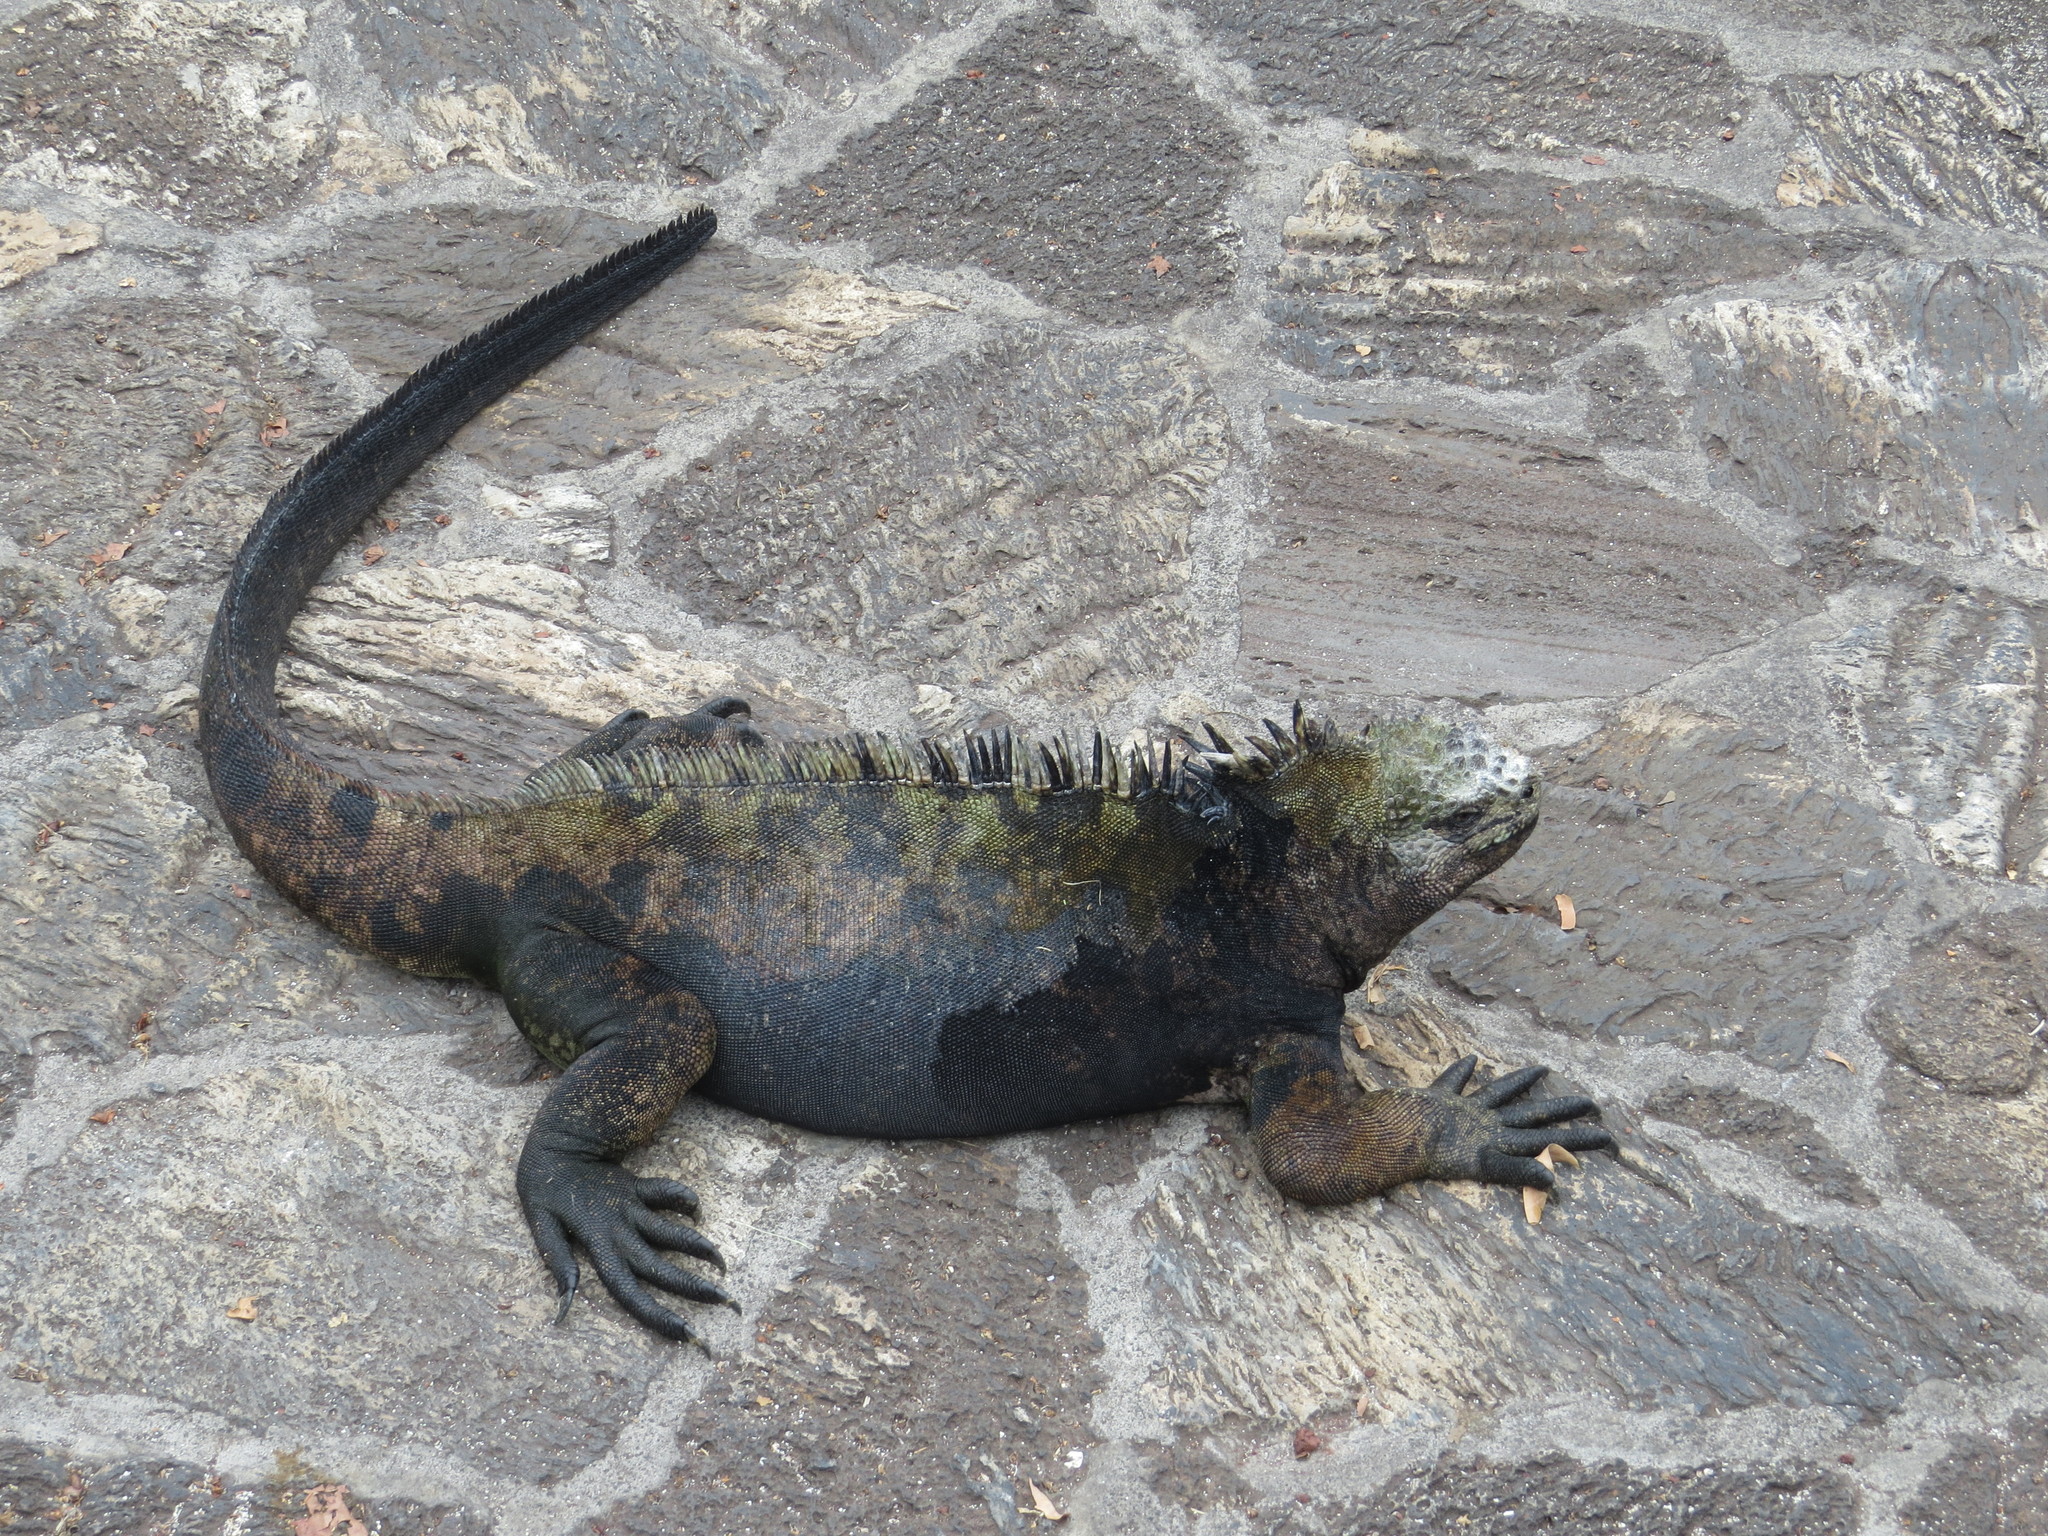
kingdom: Animalia
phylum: Chordata
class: Squamata
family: Iguanidae
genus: Amblyrhynchus
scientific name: Amblyrhynchus cristatus
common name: Marine iguana
